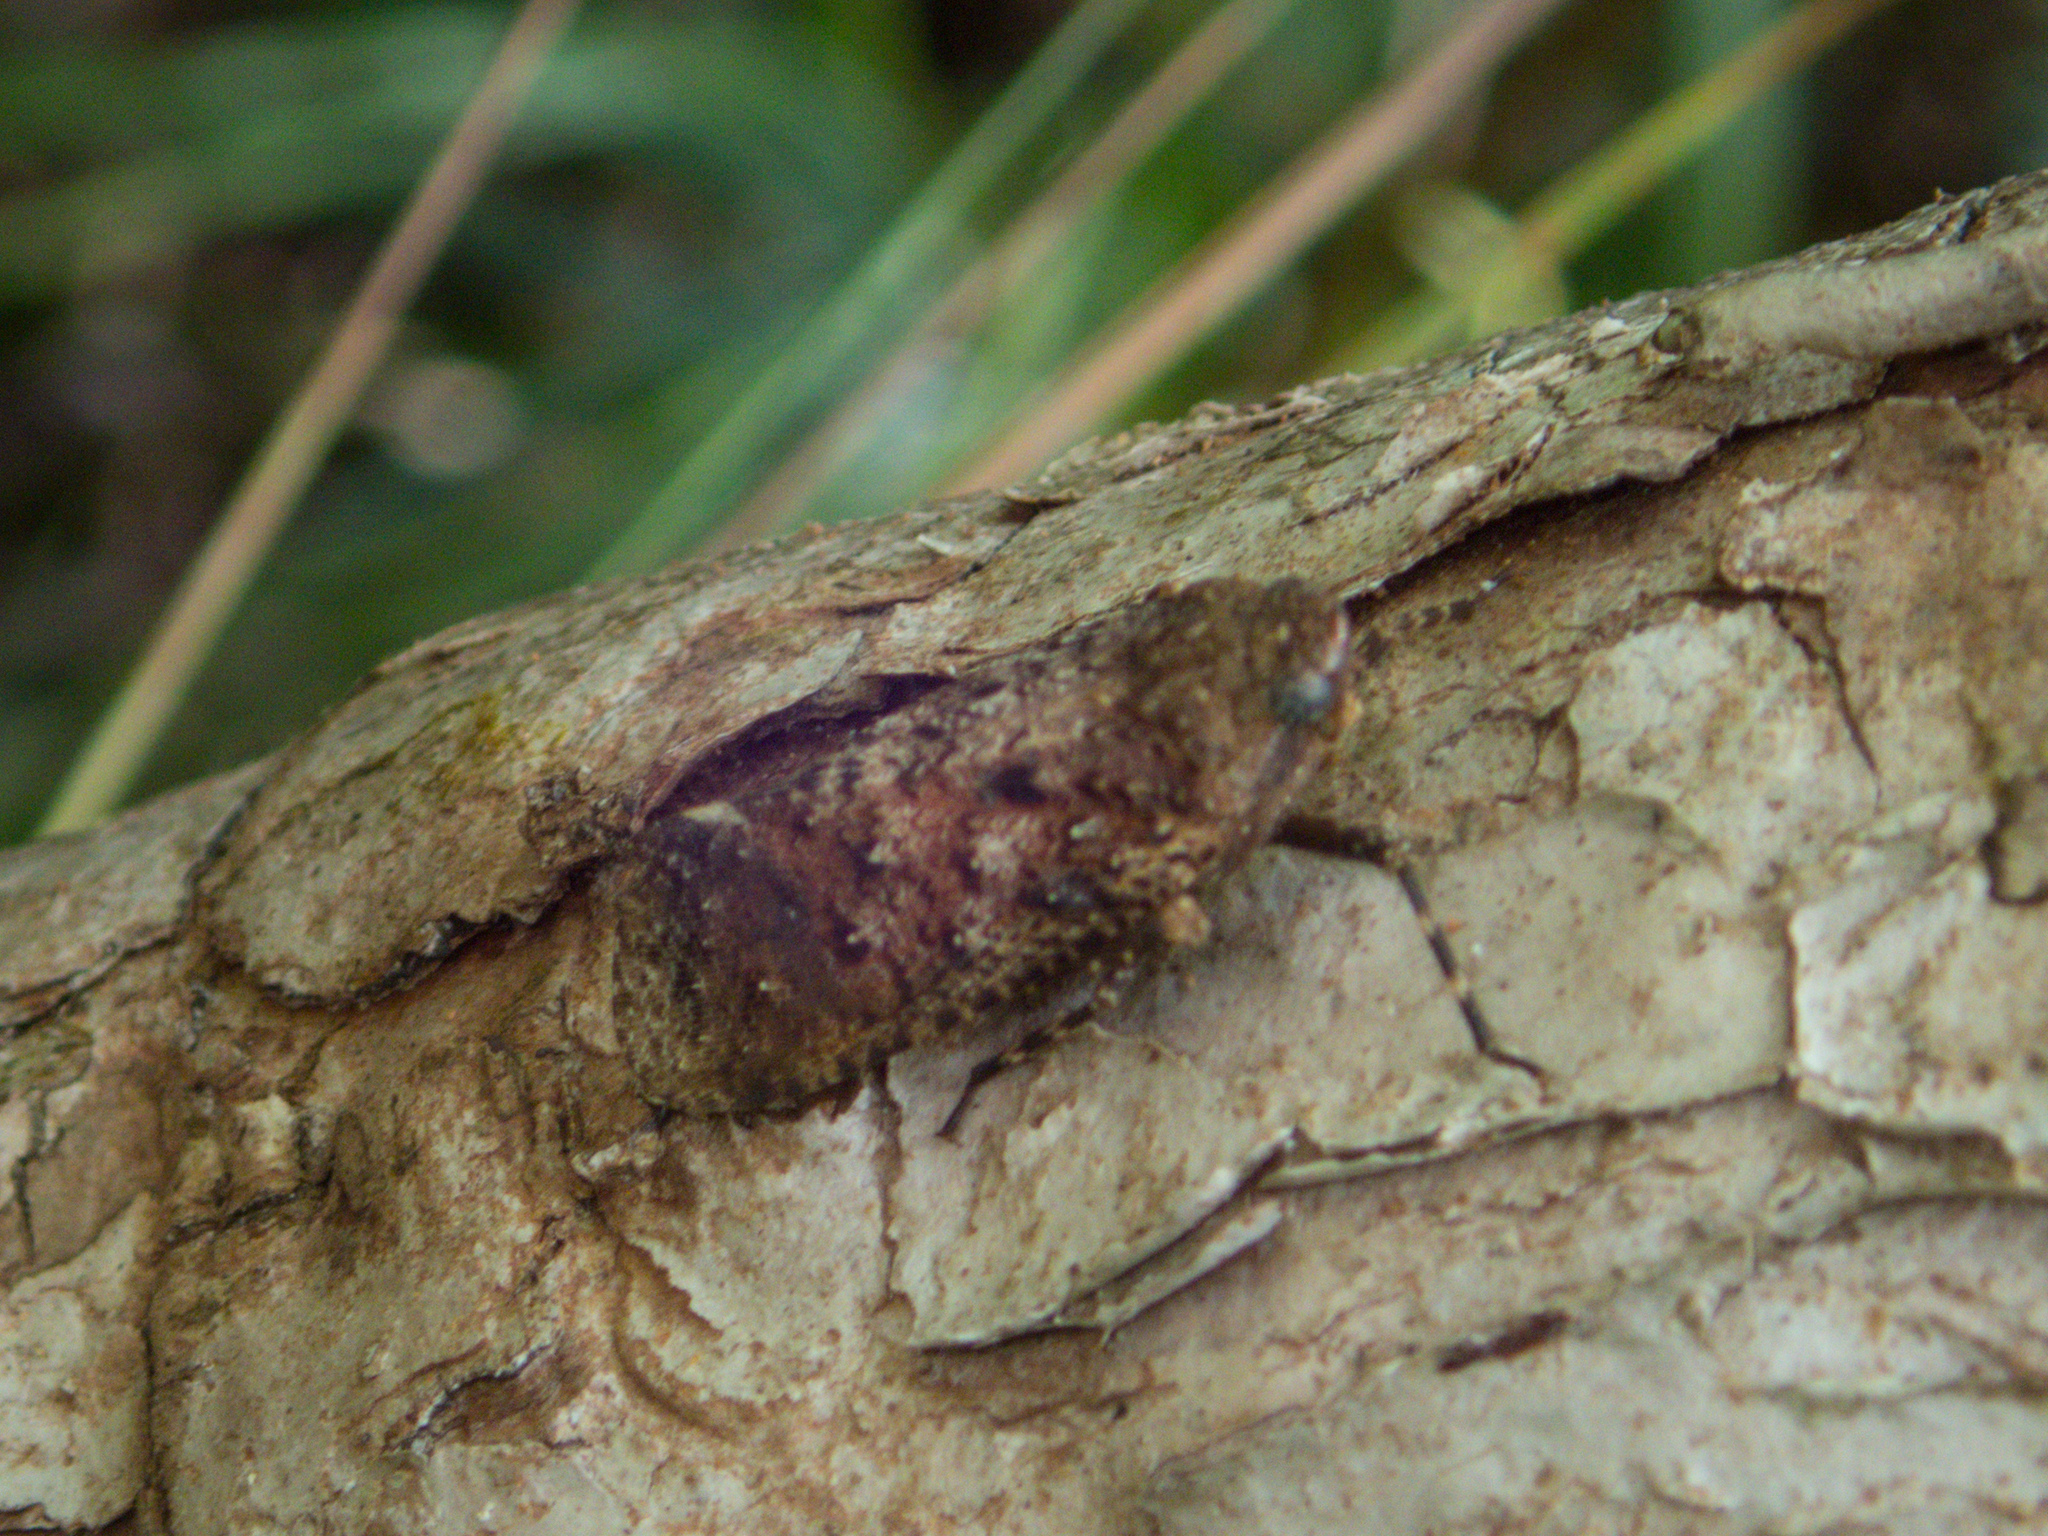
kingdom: Animalia
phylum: Arthropoda
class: Insecta
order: Hemiptera
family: Fulgoridae
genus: Penthicodes
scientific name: Penthicodes pulchella
